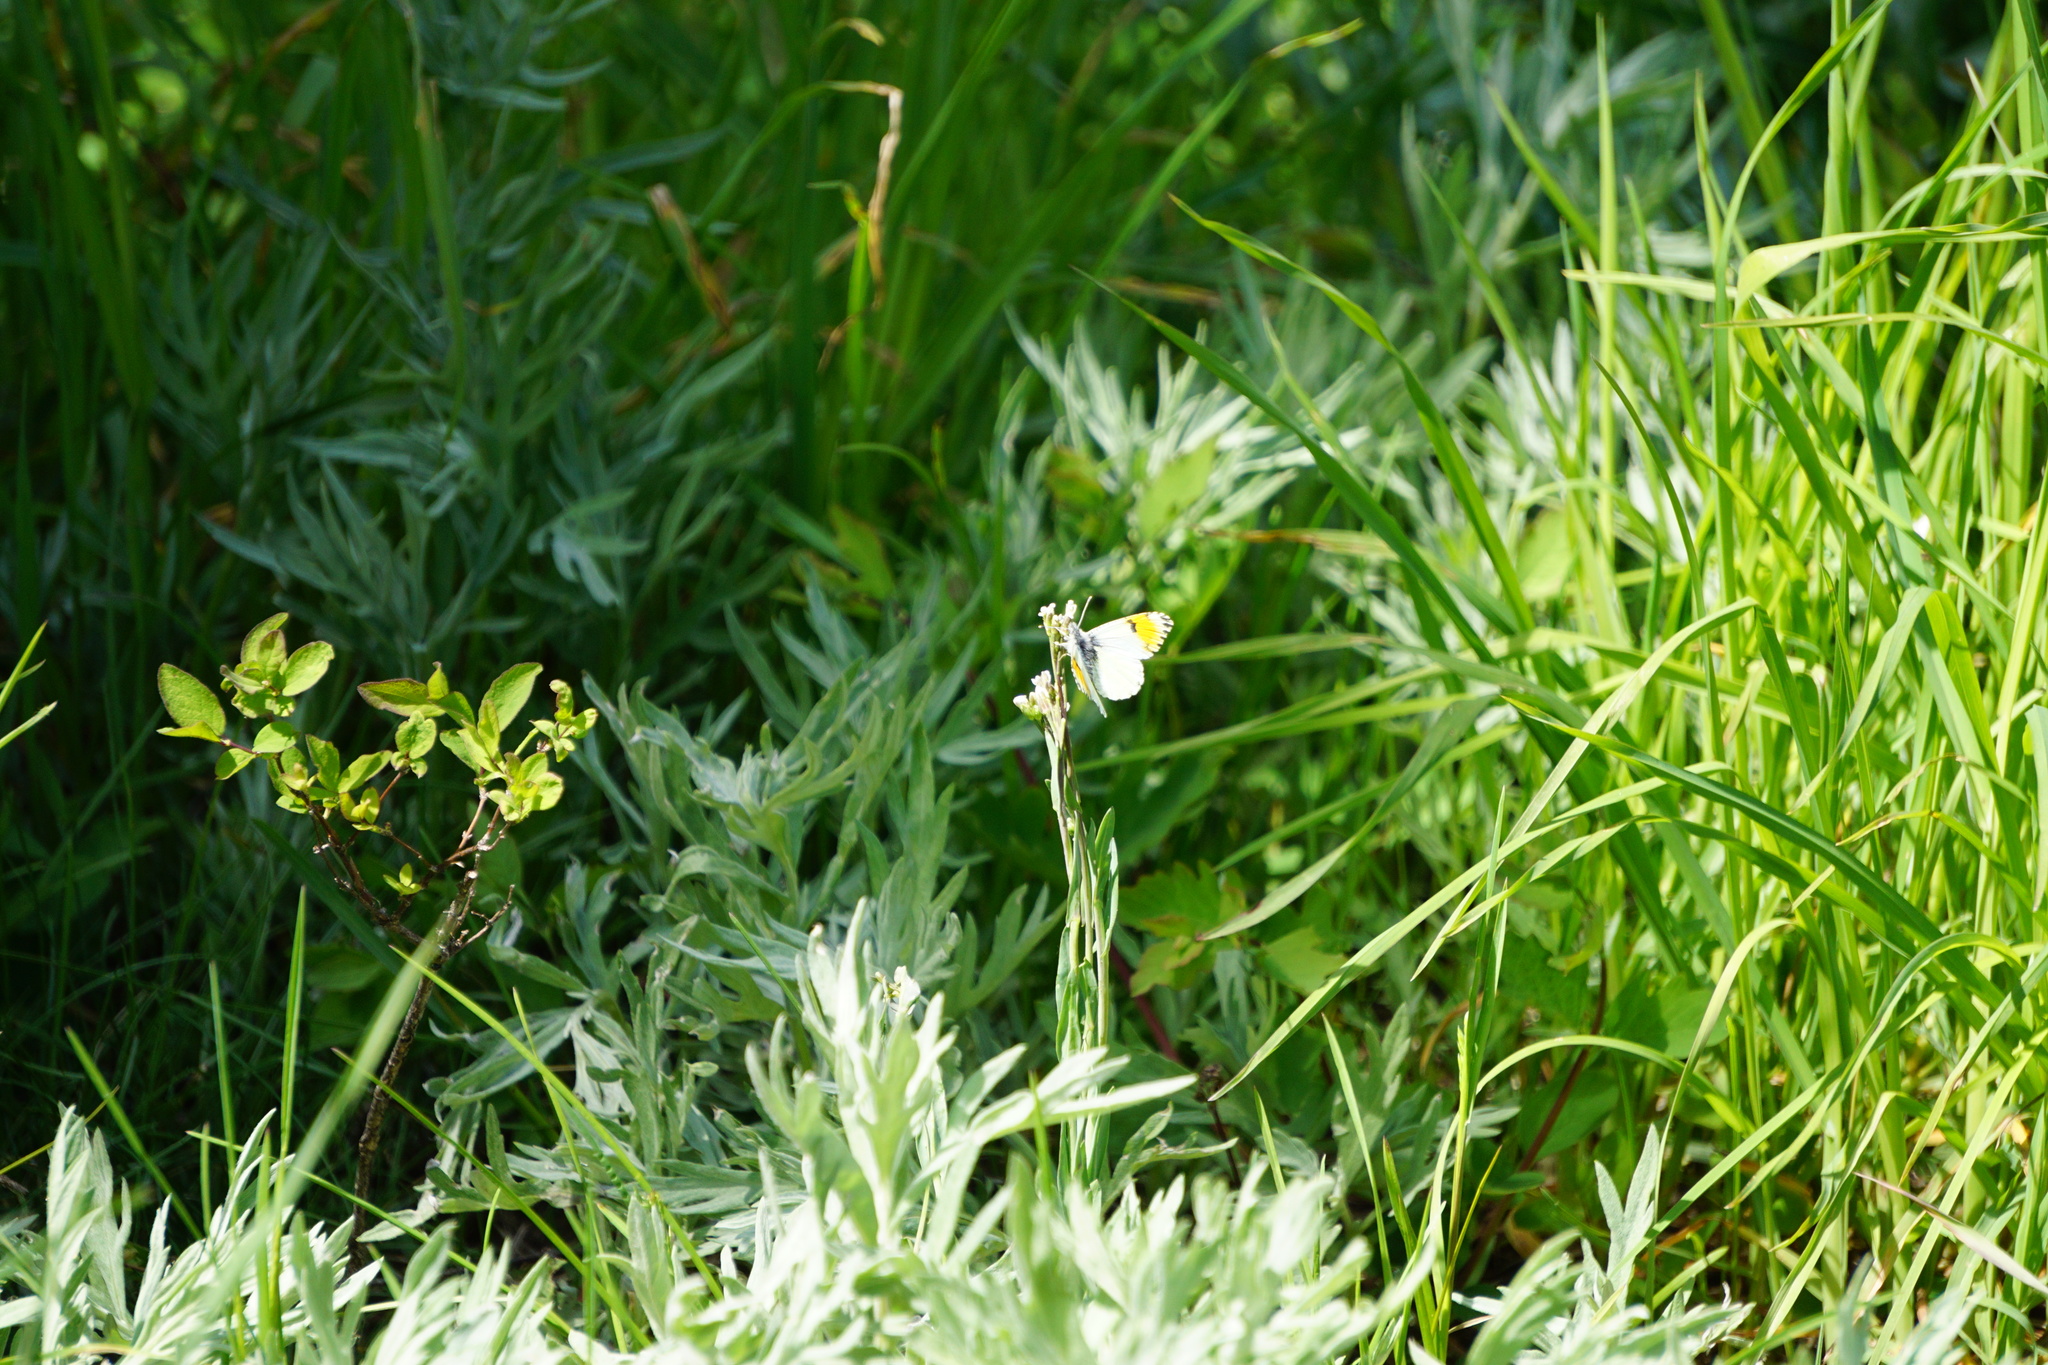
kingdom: Animalia
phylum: Arthropoda
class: Insecta
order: Lepidoptera
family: Pieridae
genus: Anthocharis
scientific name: Anthocharis julia
